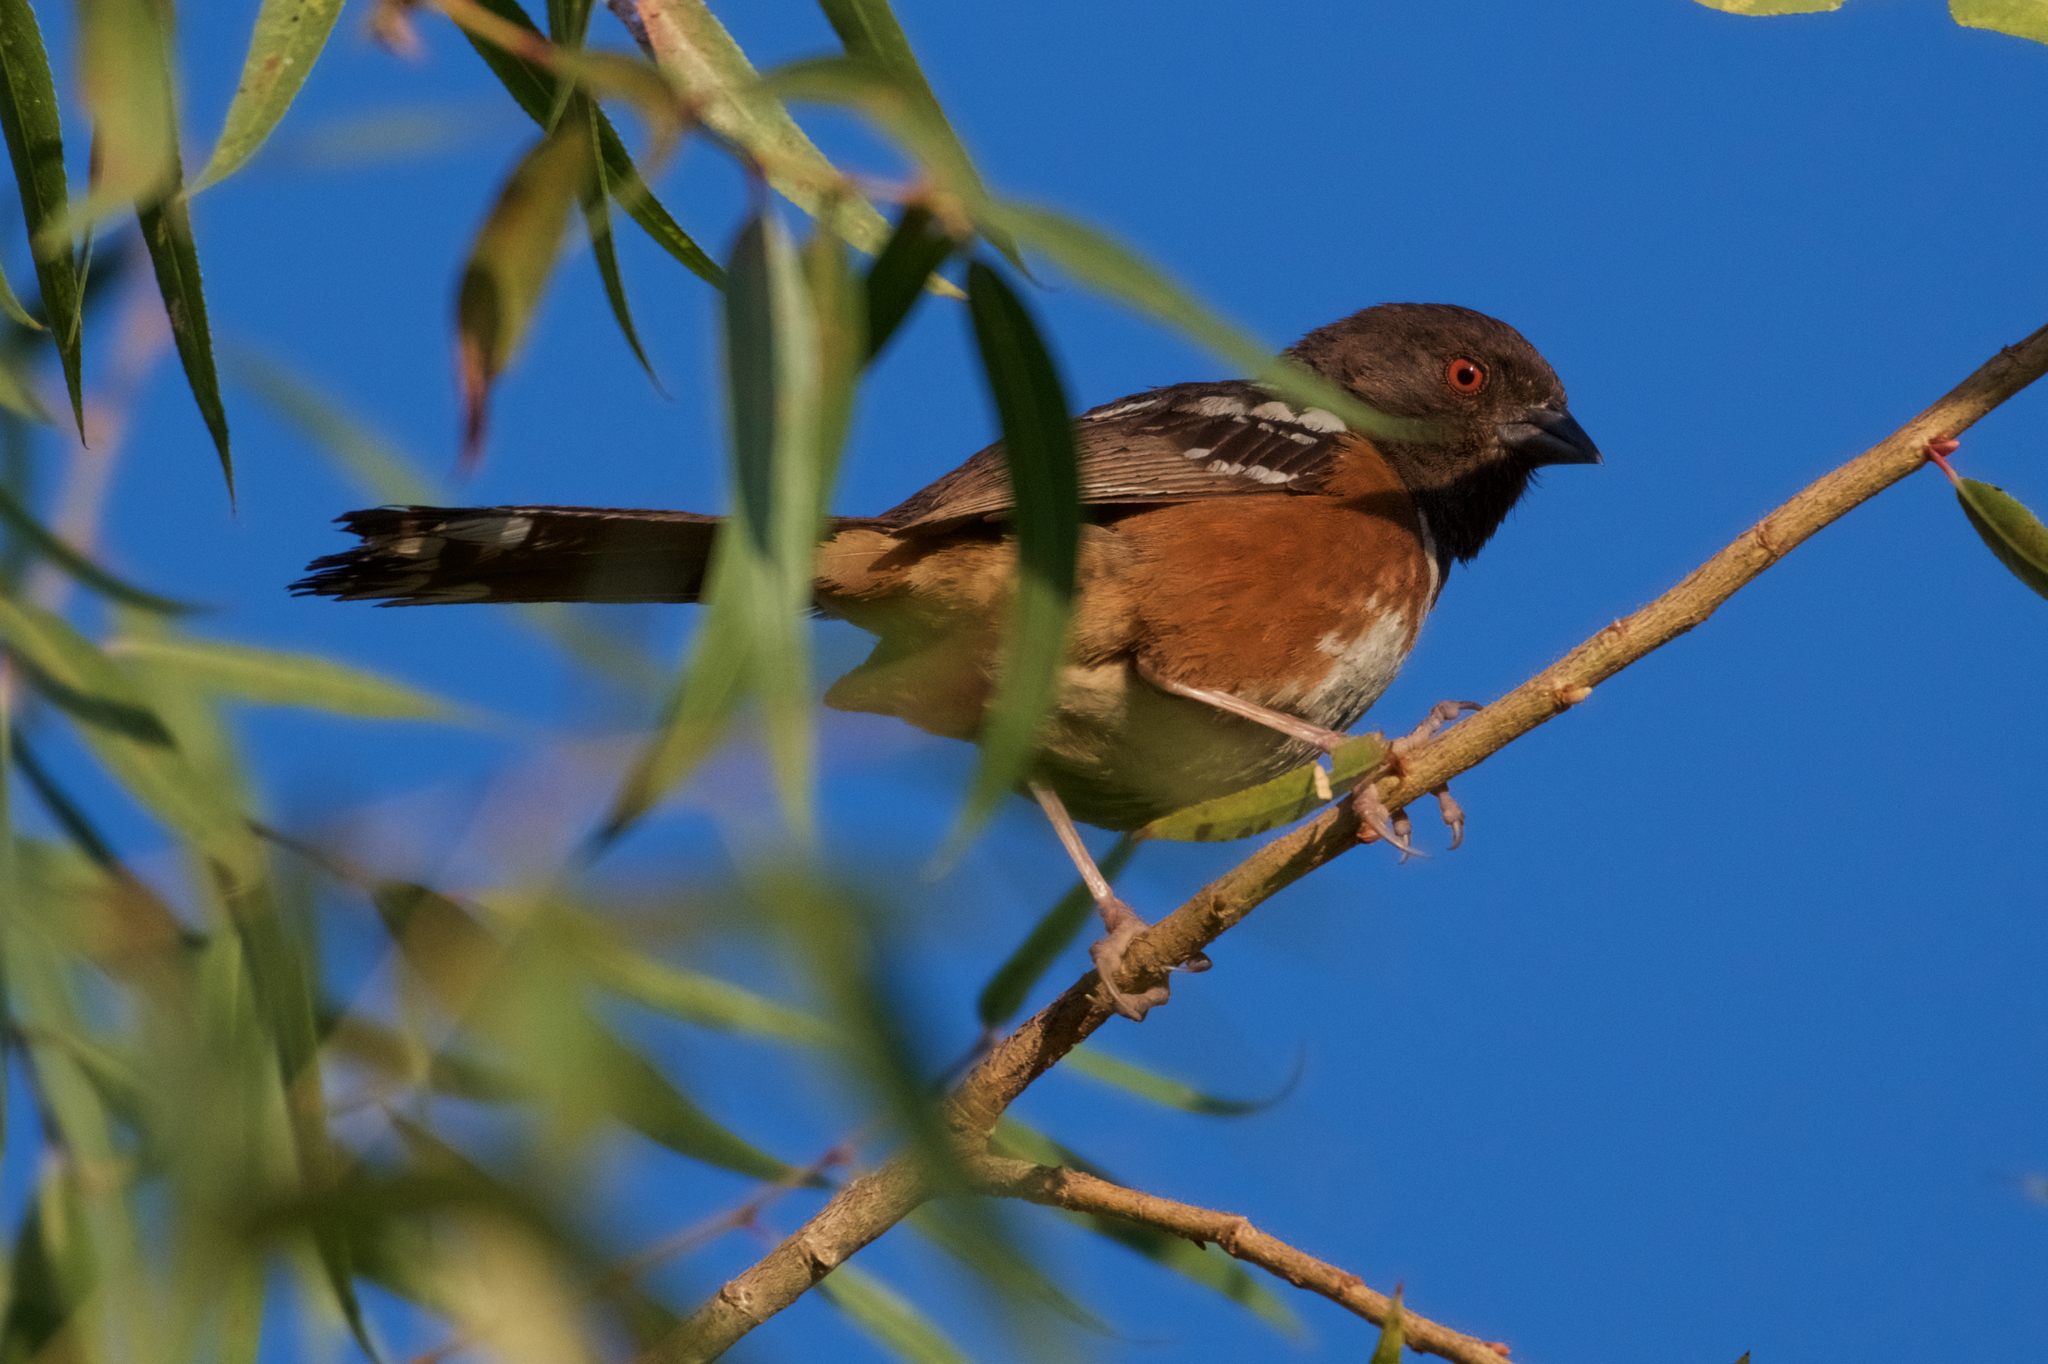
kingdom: Animalia
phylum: Chordata
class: Aves
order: Passeriformes
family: Passerellidae
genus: Pipilo
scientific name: Pipilo maculatus
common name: Spotted towhee
